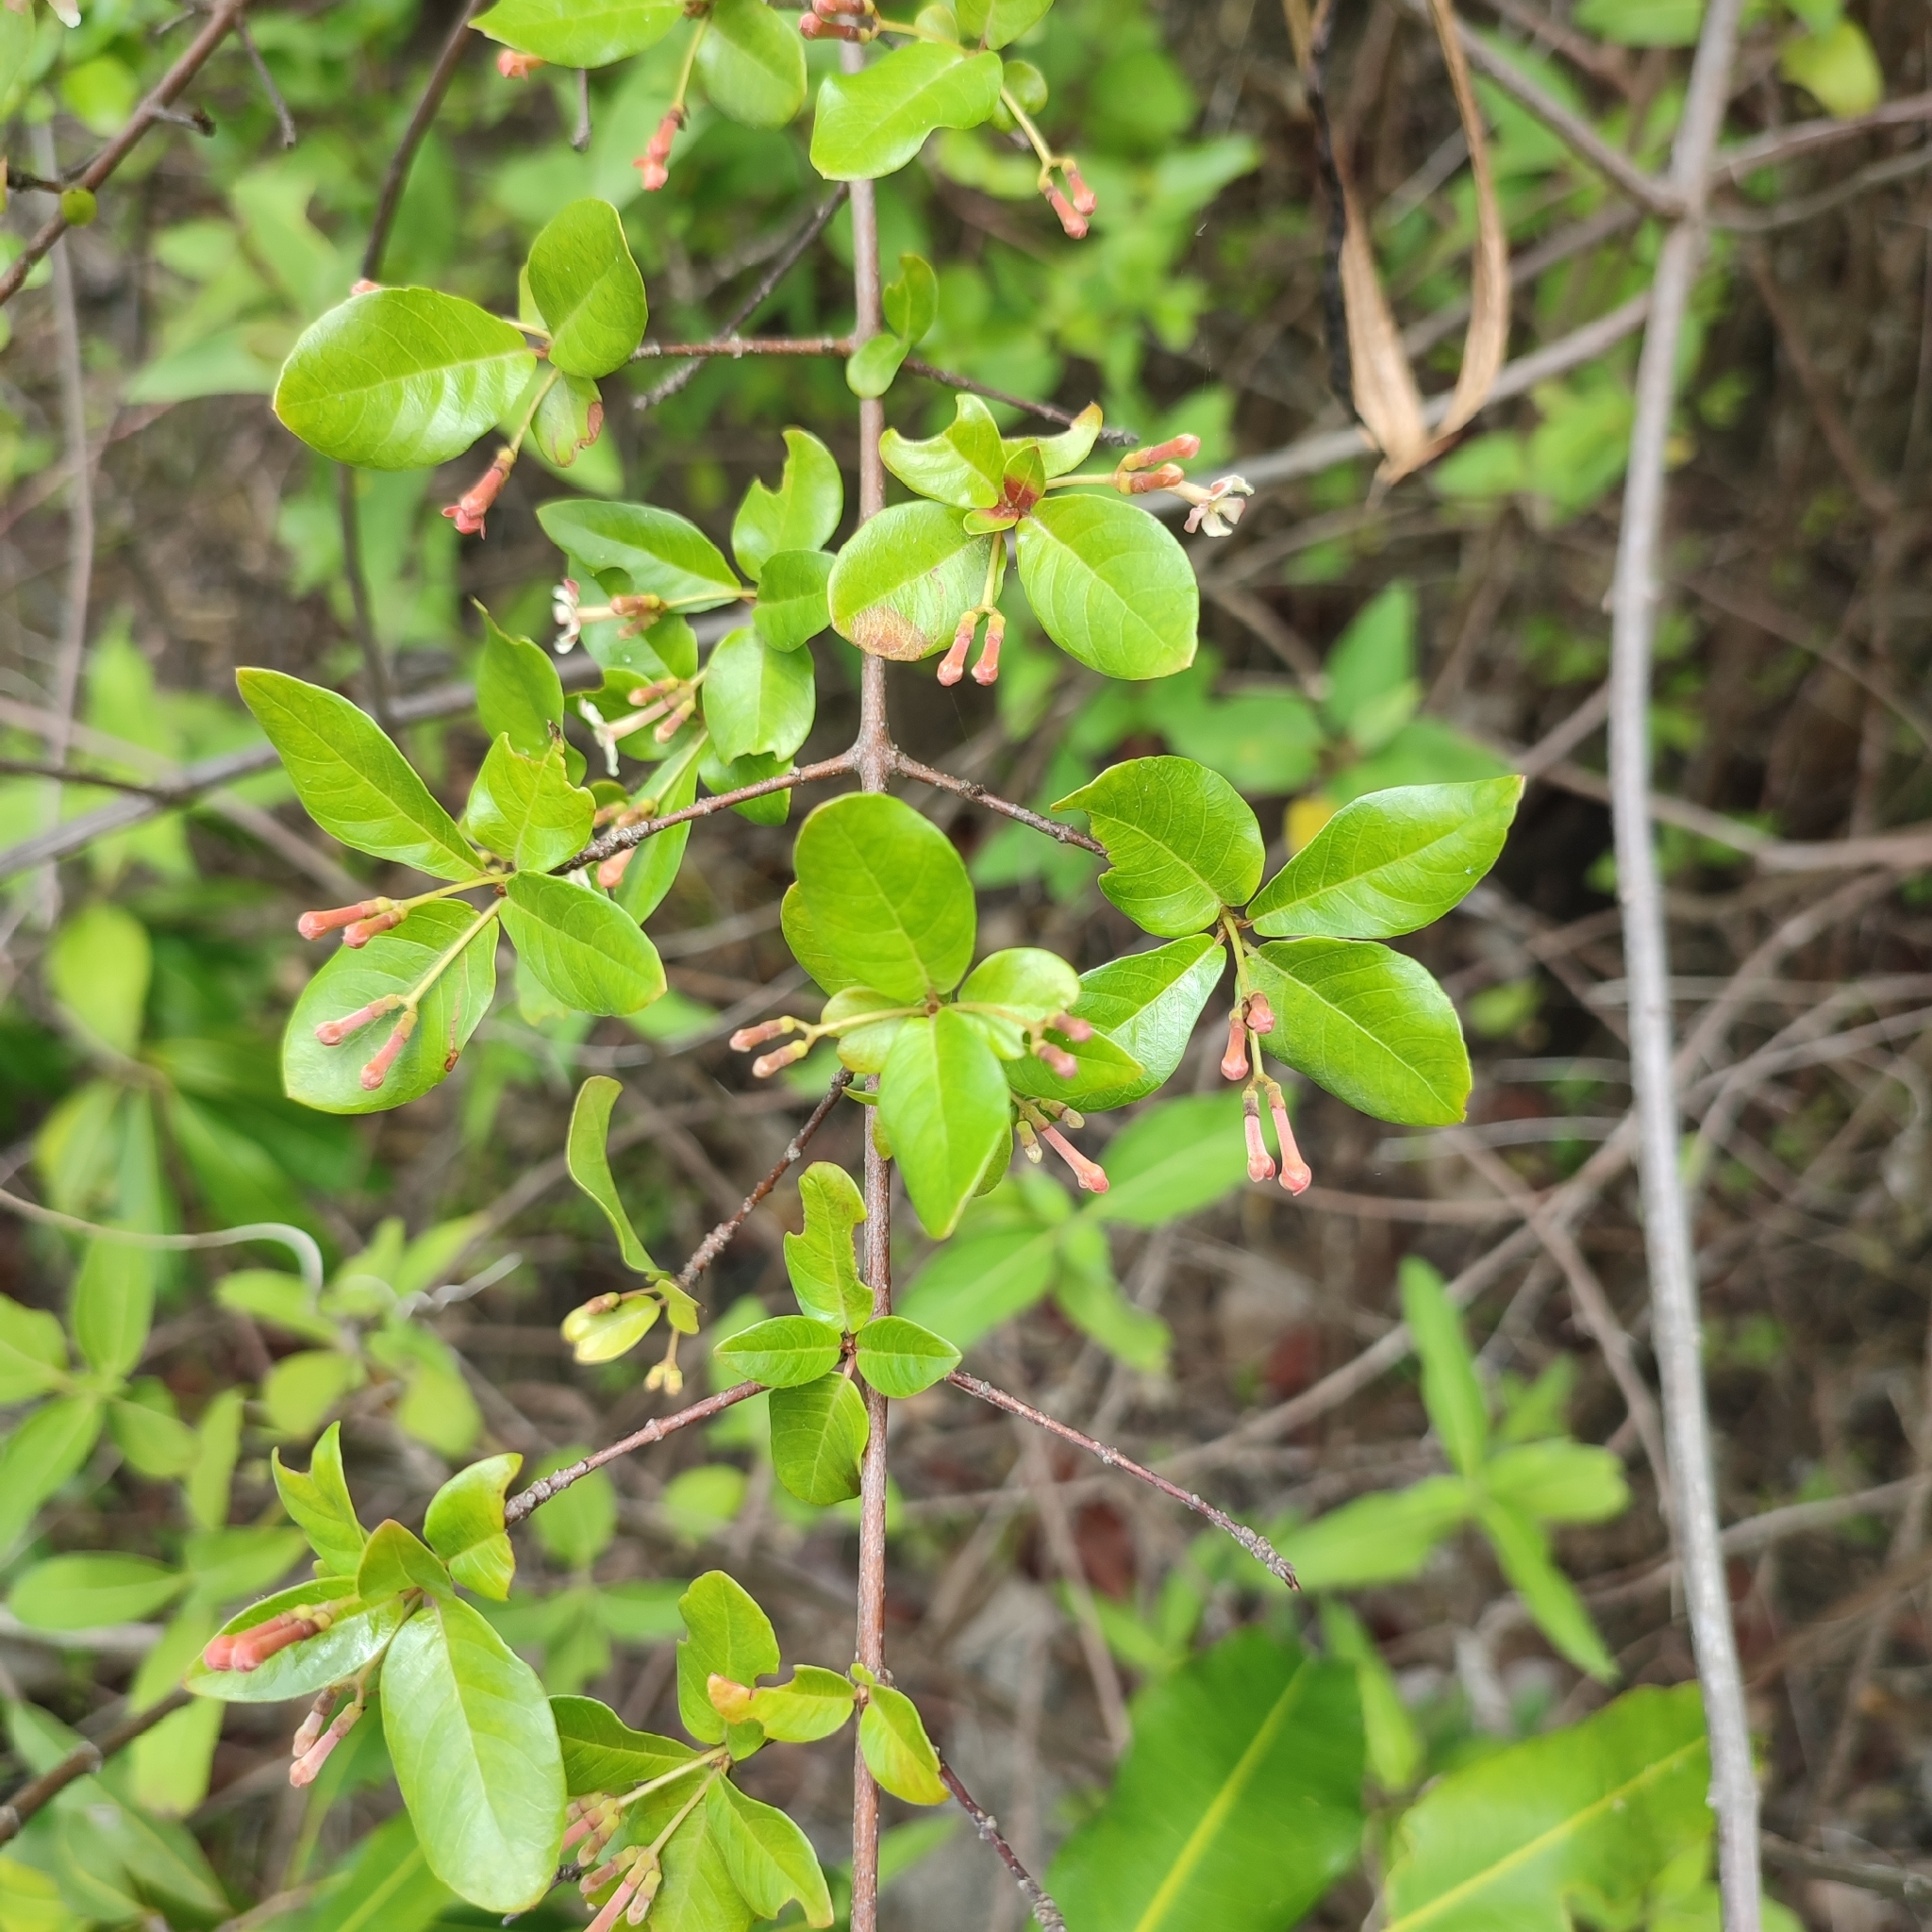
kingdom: Plantae
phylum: Tracheophyta
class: Magnoliopsida
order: Gentianales
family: Rubiaceae
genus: Rondeletia
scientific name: Rondeletia buxifolia
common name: Pribby
